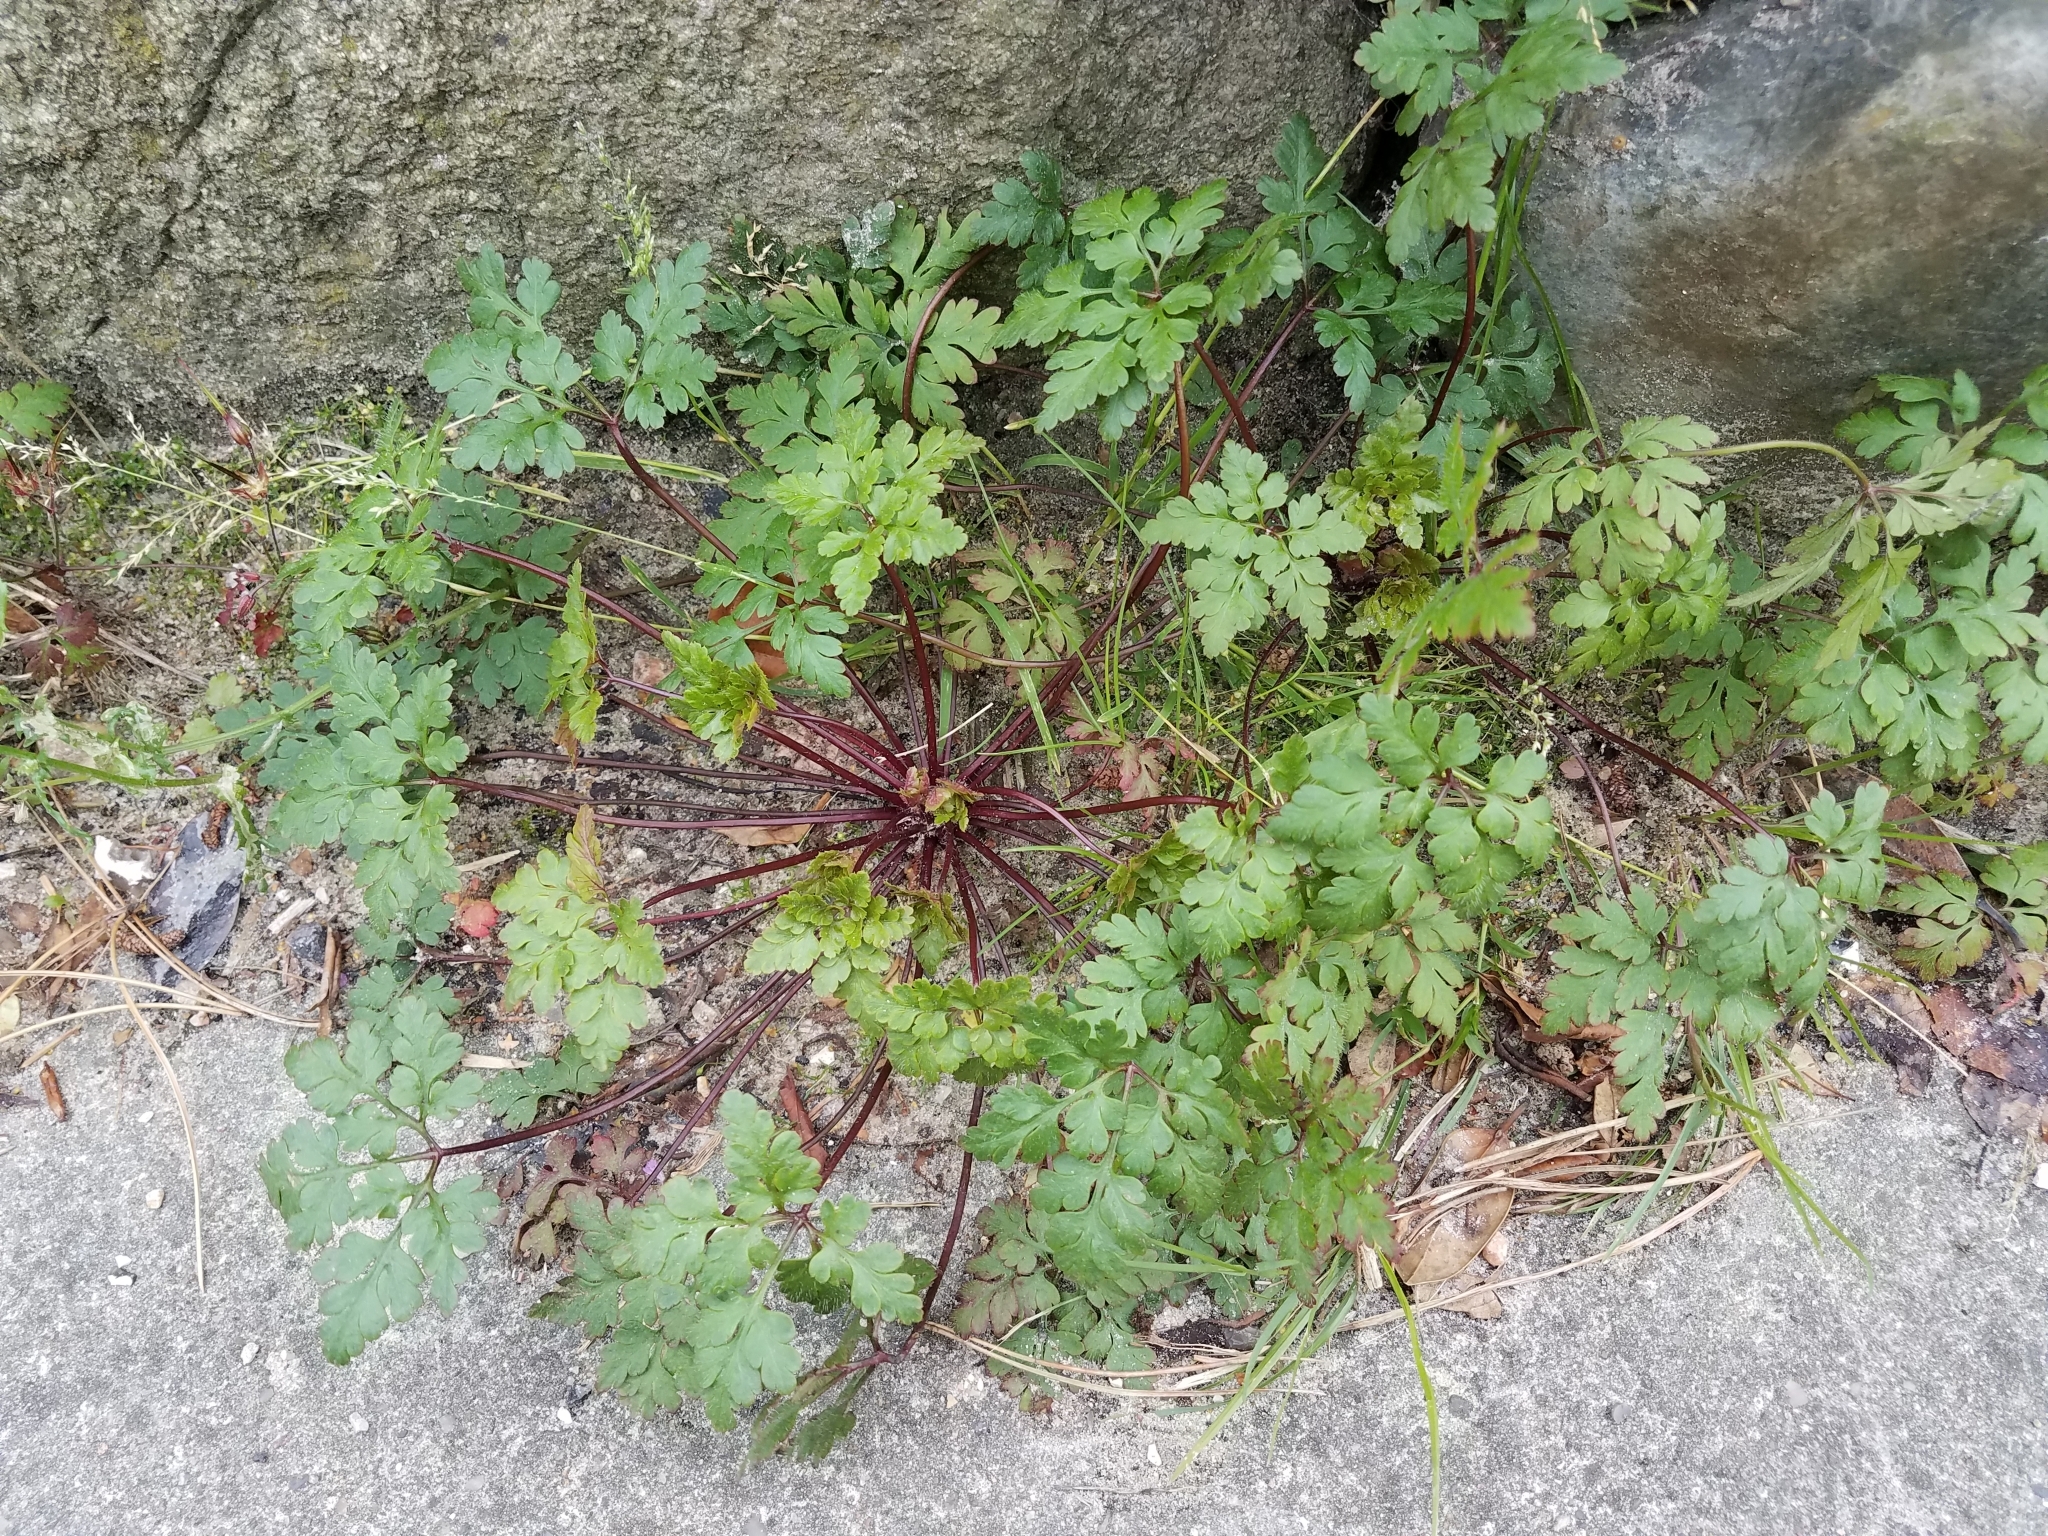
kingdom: Plantae
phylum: Tracheophyta
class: Magnoliopsida
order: Geraniales
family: Geraniaceae
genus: Geranium
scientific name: Geranium robertianum
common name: Herb-robert
